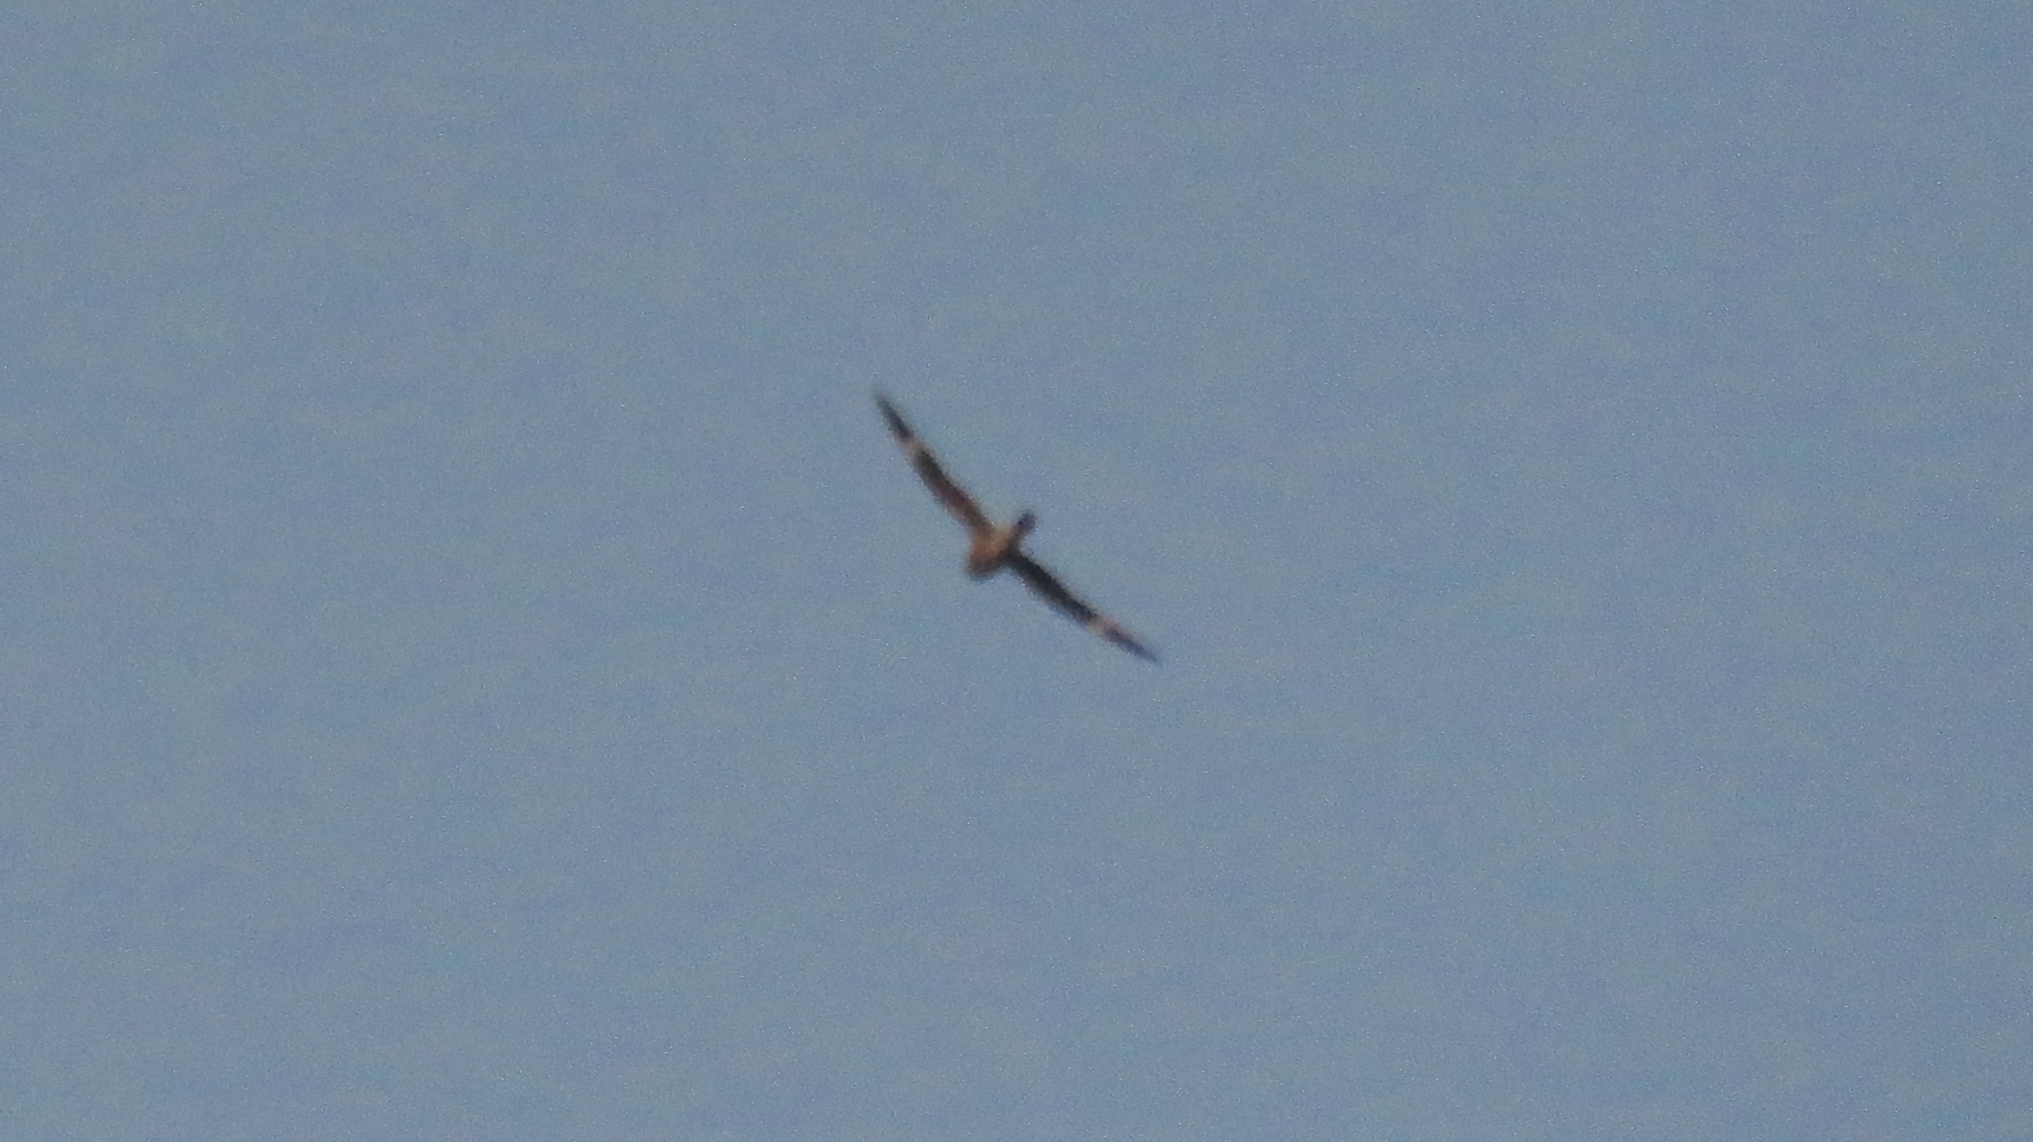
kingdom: Animalia
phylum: Chordata
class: Aves
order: Caprimulgiformes
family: Caprimulgidae
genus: Chordeiles
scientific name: Chordeiles minor
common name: Common nighthawk
